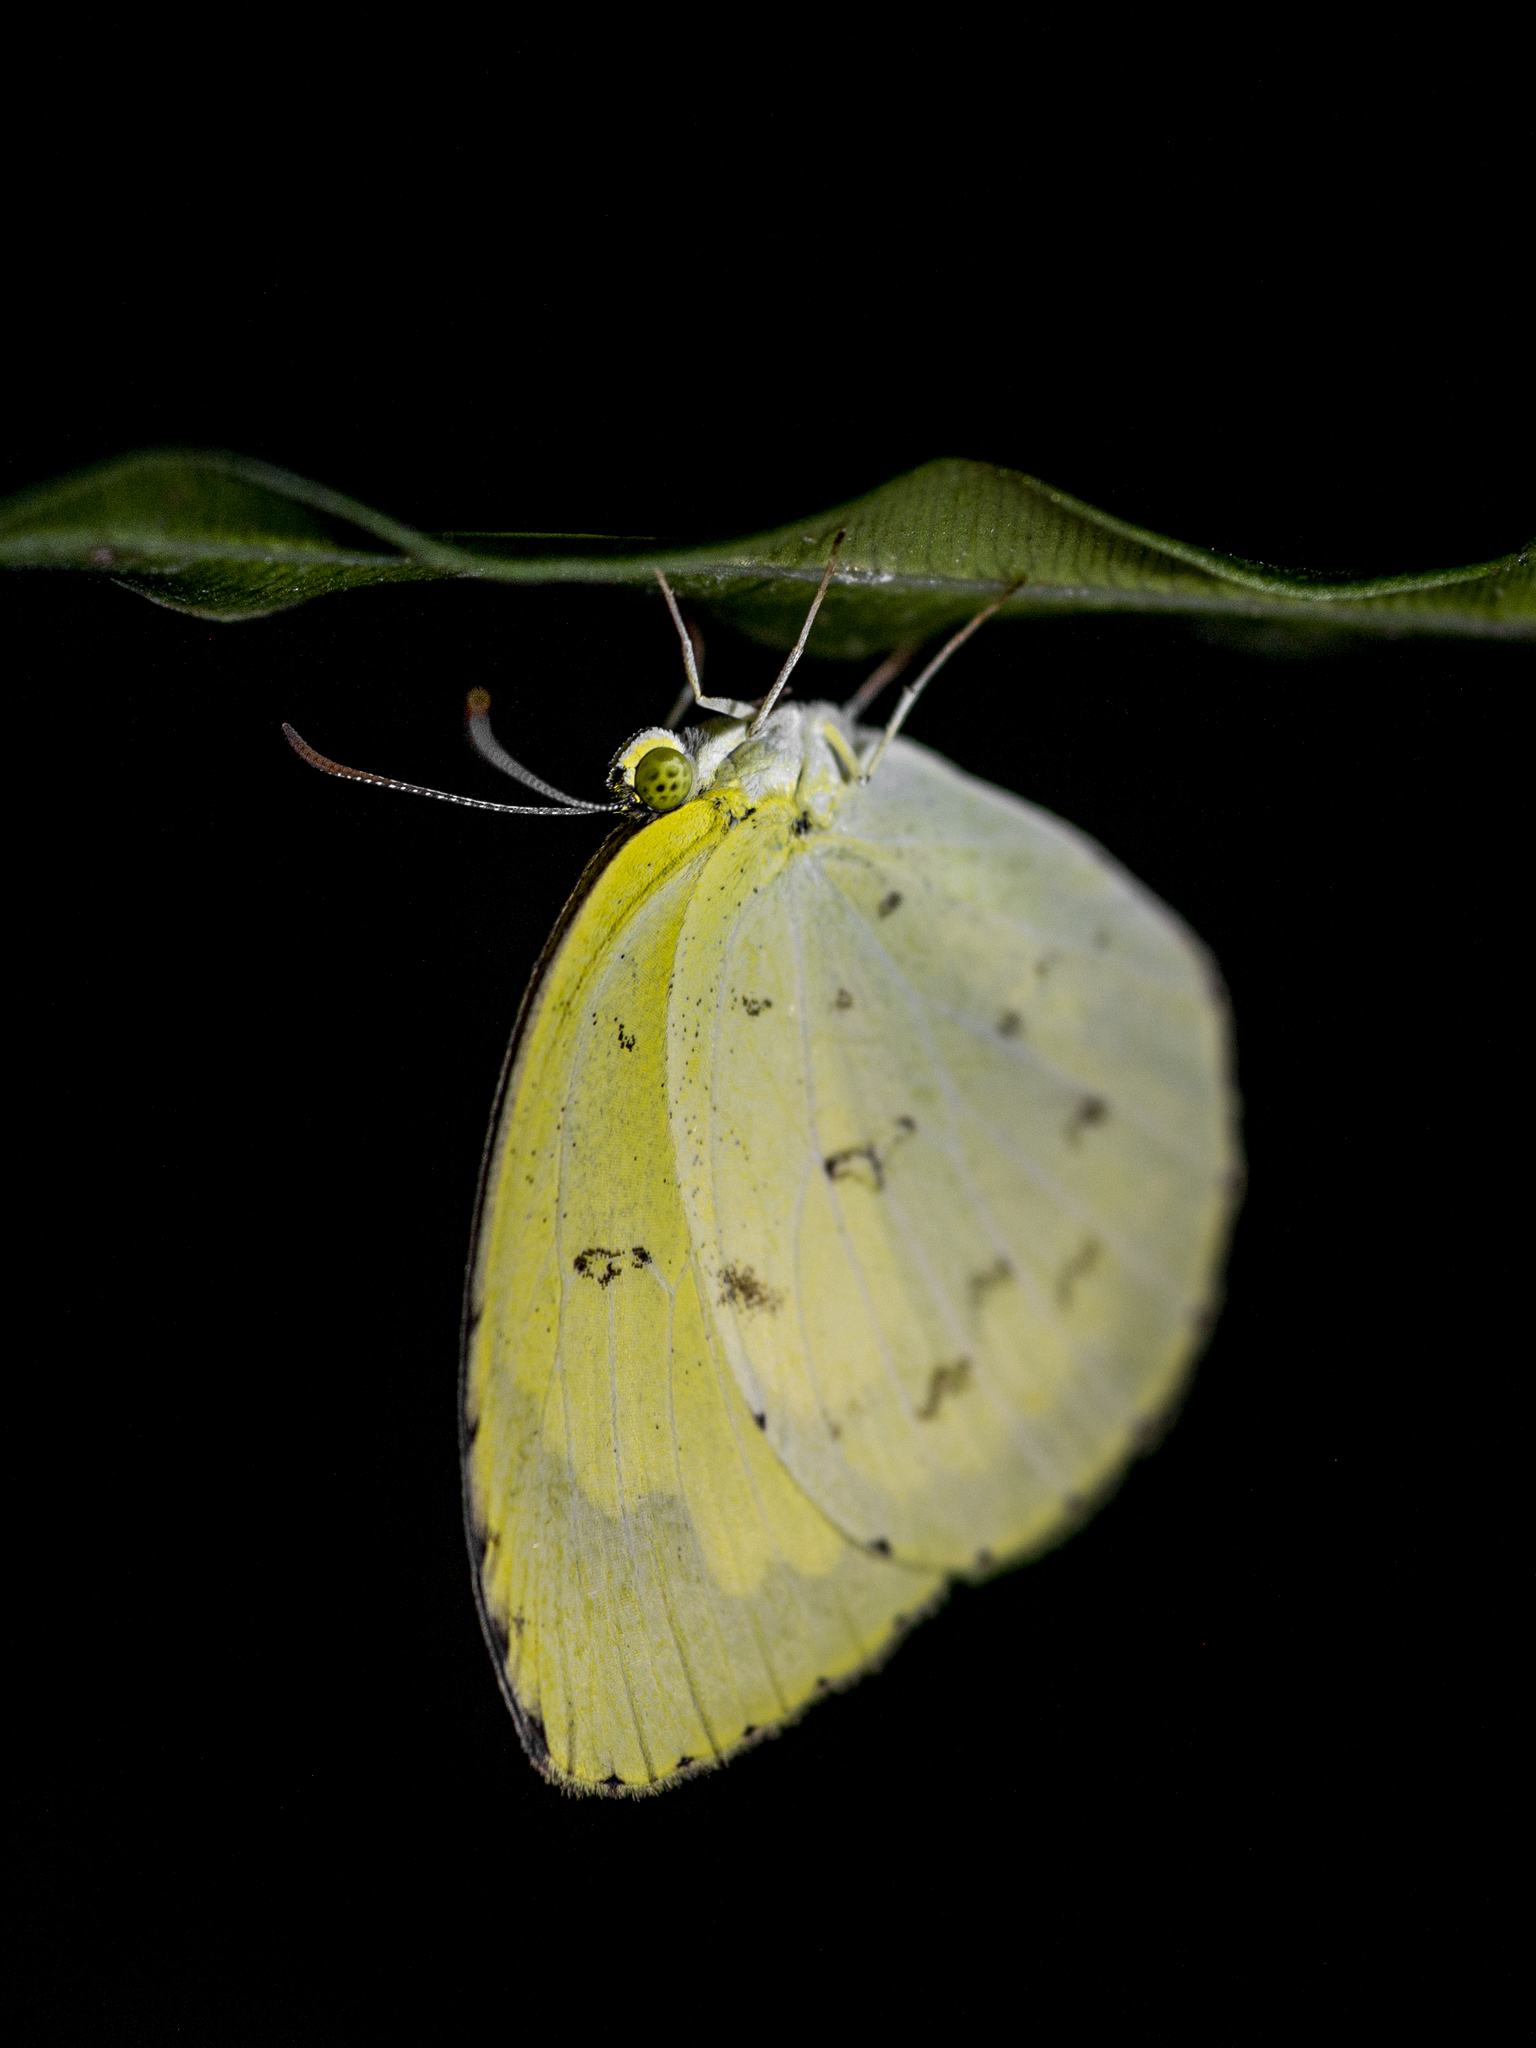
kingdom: Animalia
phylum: Arthropoda
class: Insecta
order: Lepidoptera
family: Pieridae
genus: Eurema
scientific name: Eurema hecabe
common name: Pale grass yellow
